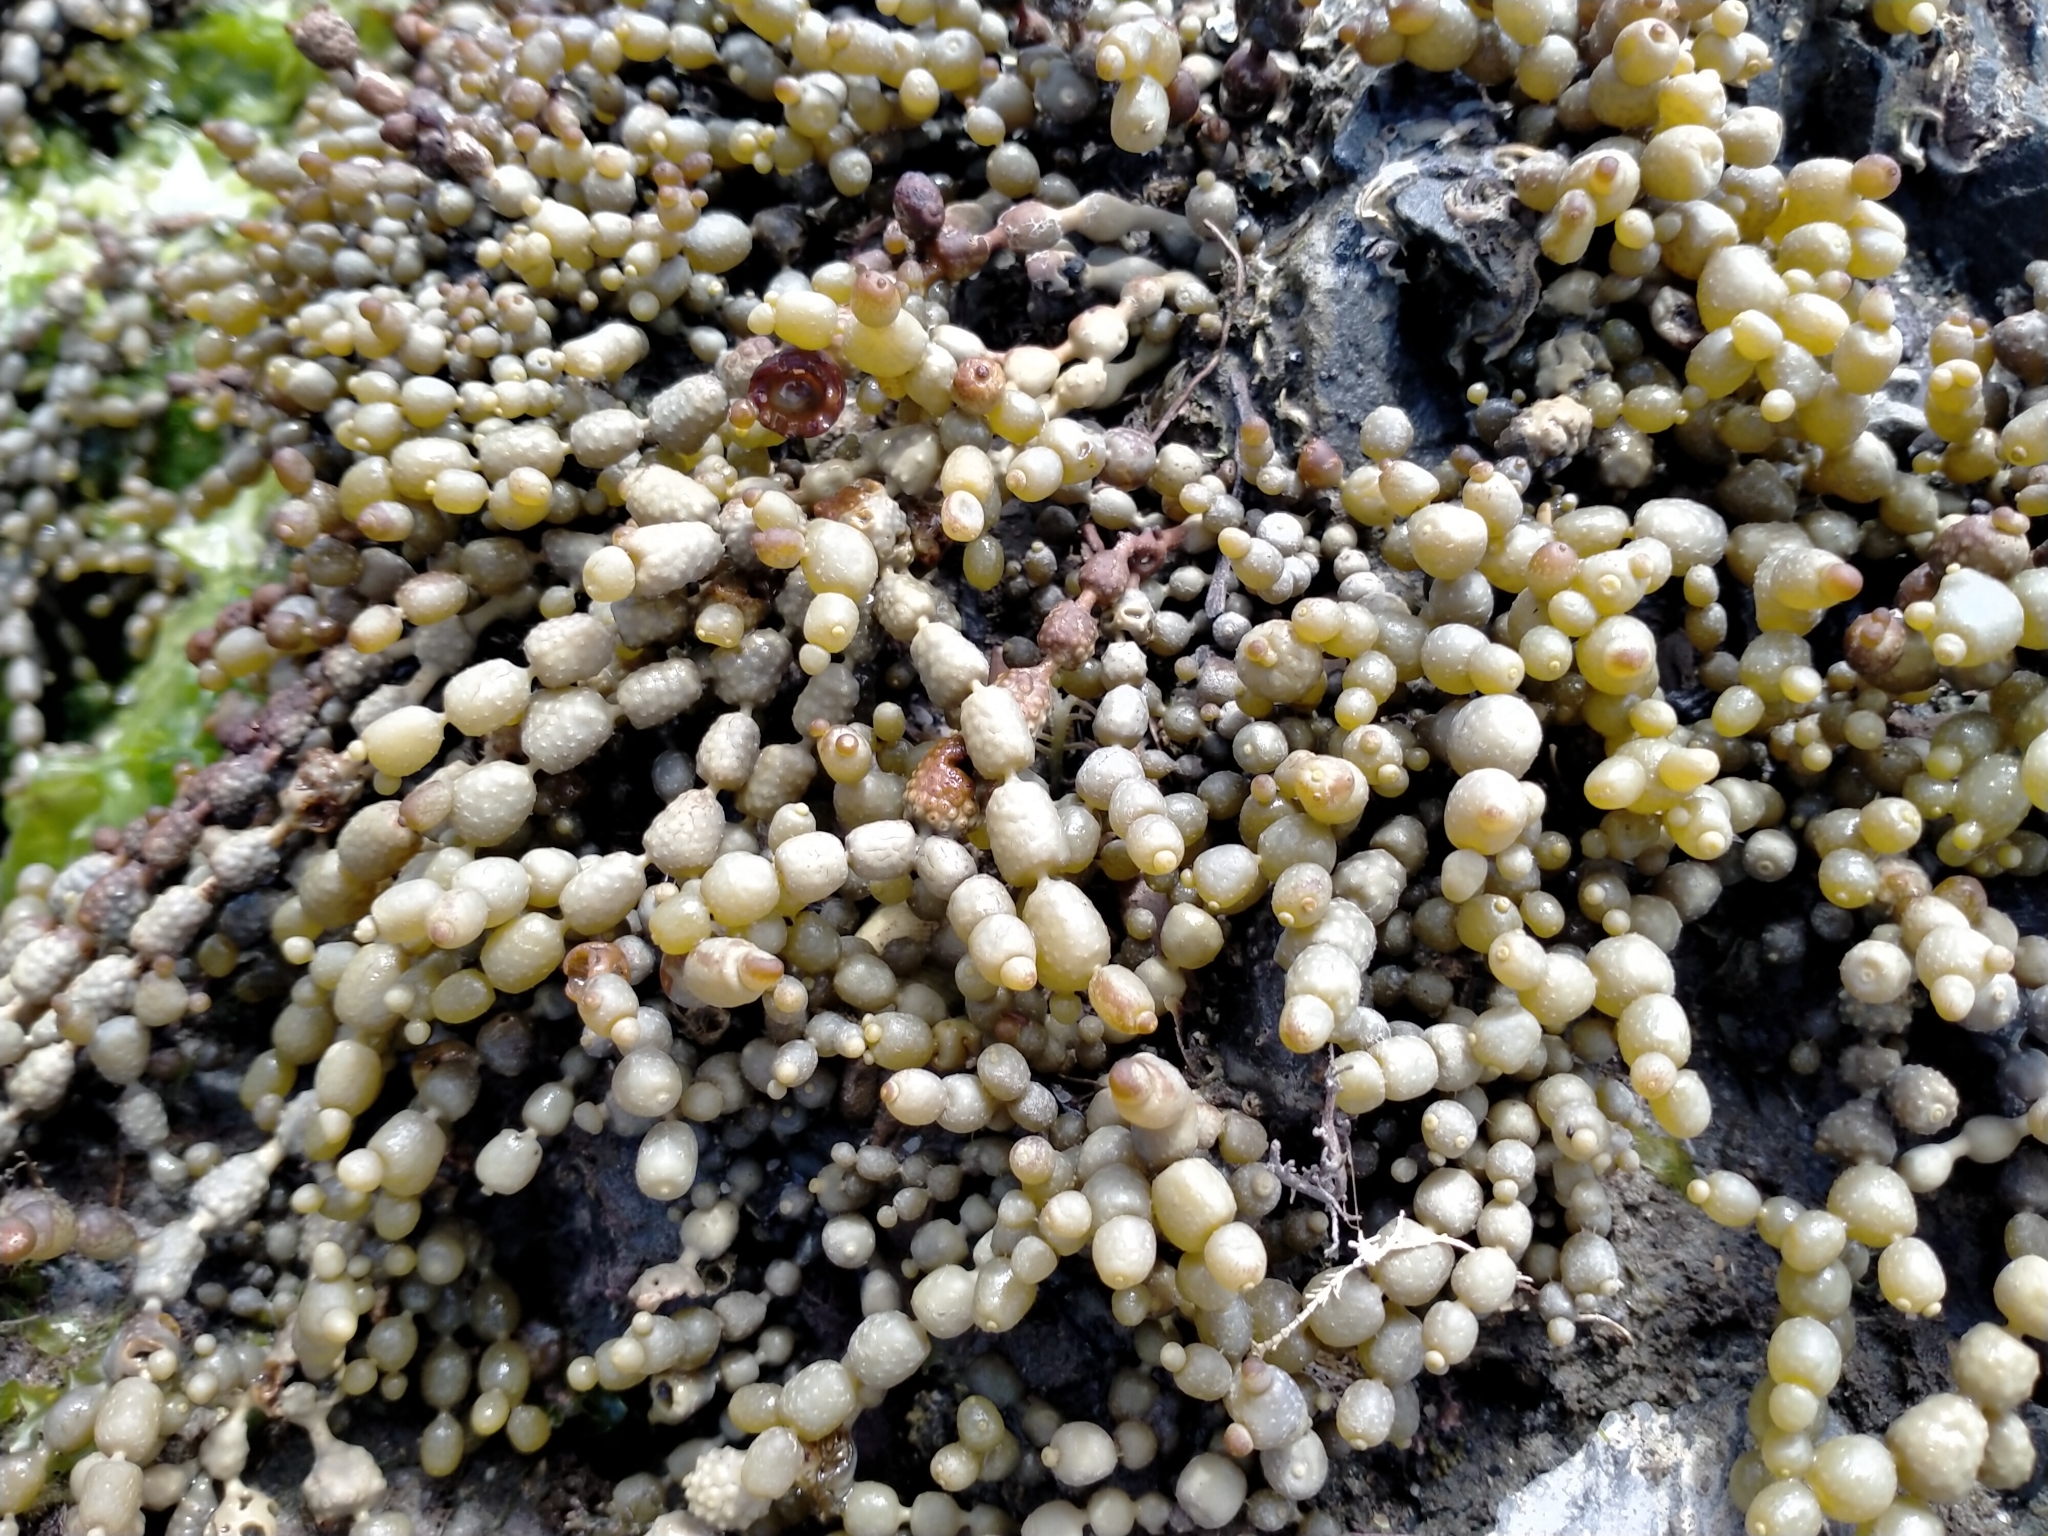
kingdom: Chromista
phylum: Ochrophyta
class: Phaeophyceae
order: Fucales
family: Hormosiraceae
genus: Hormosira
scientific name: Hormosira banksii
